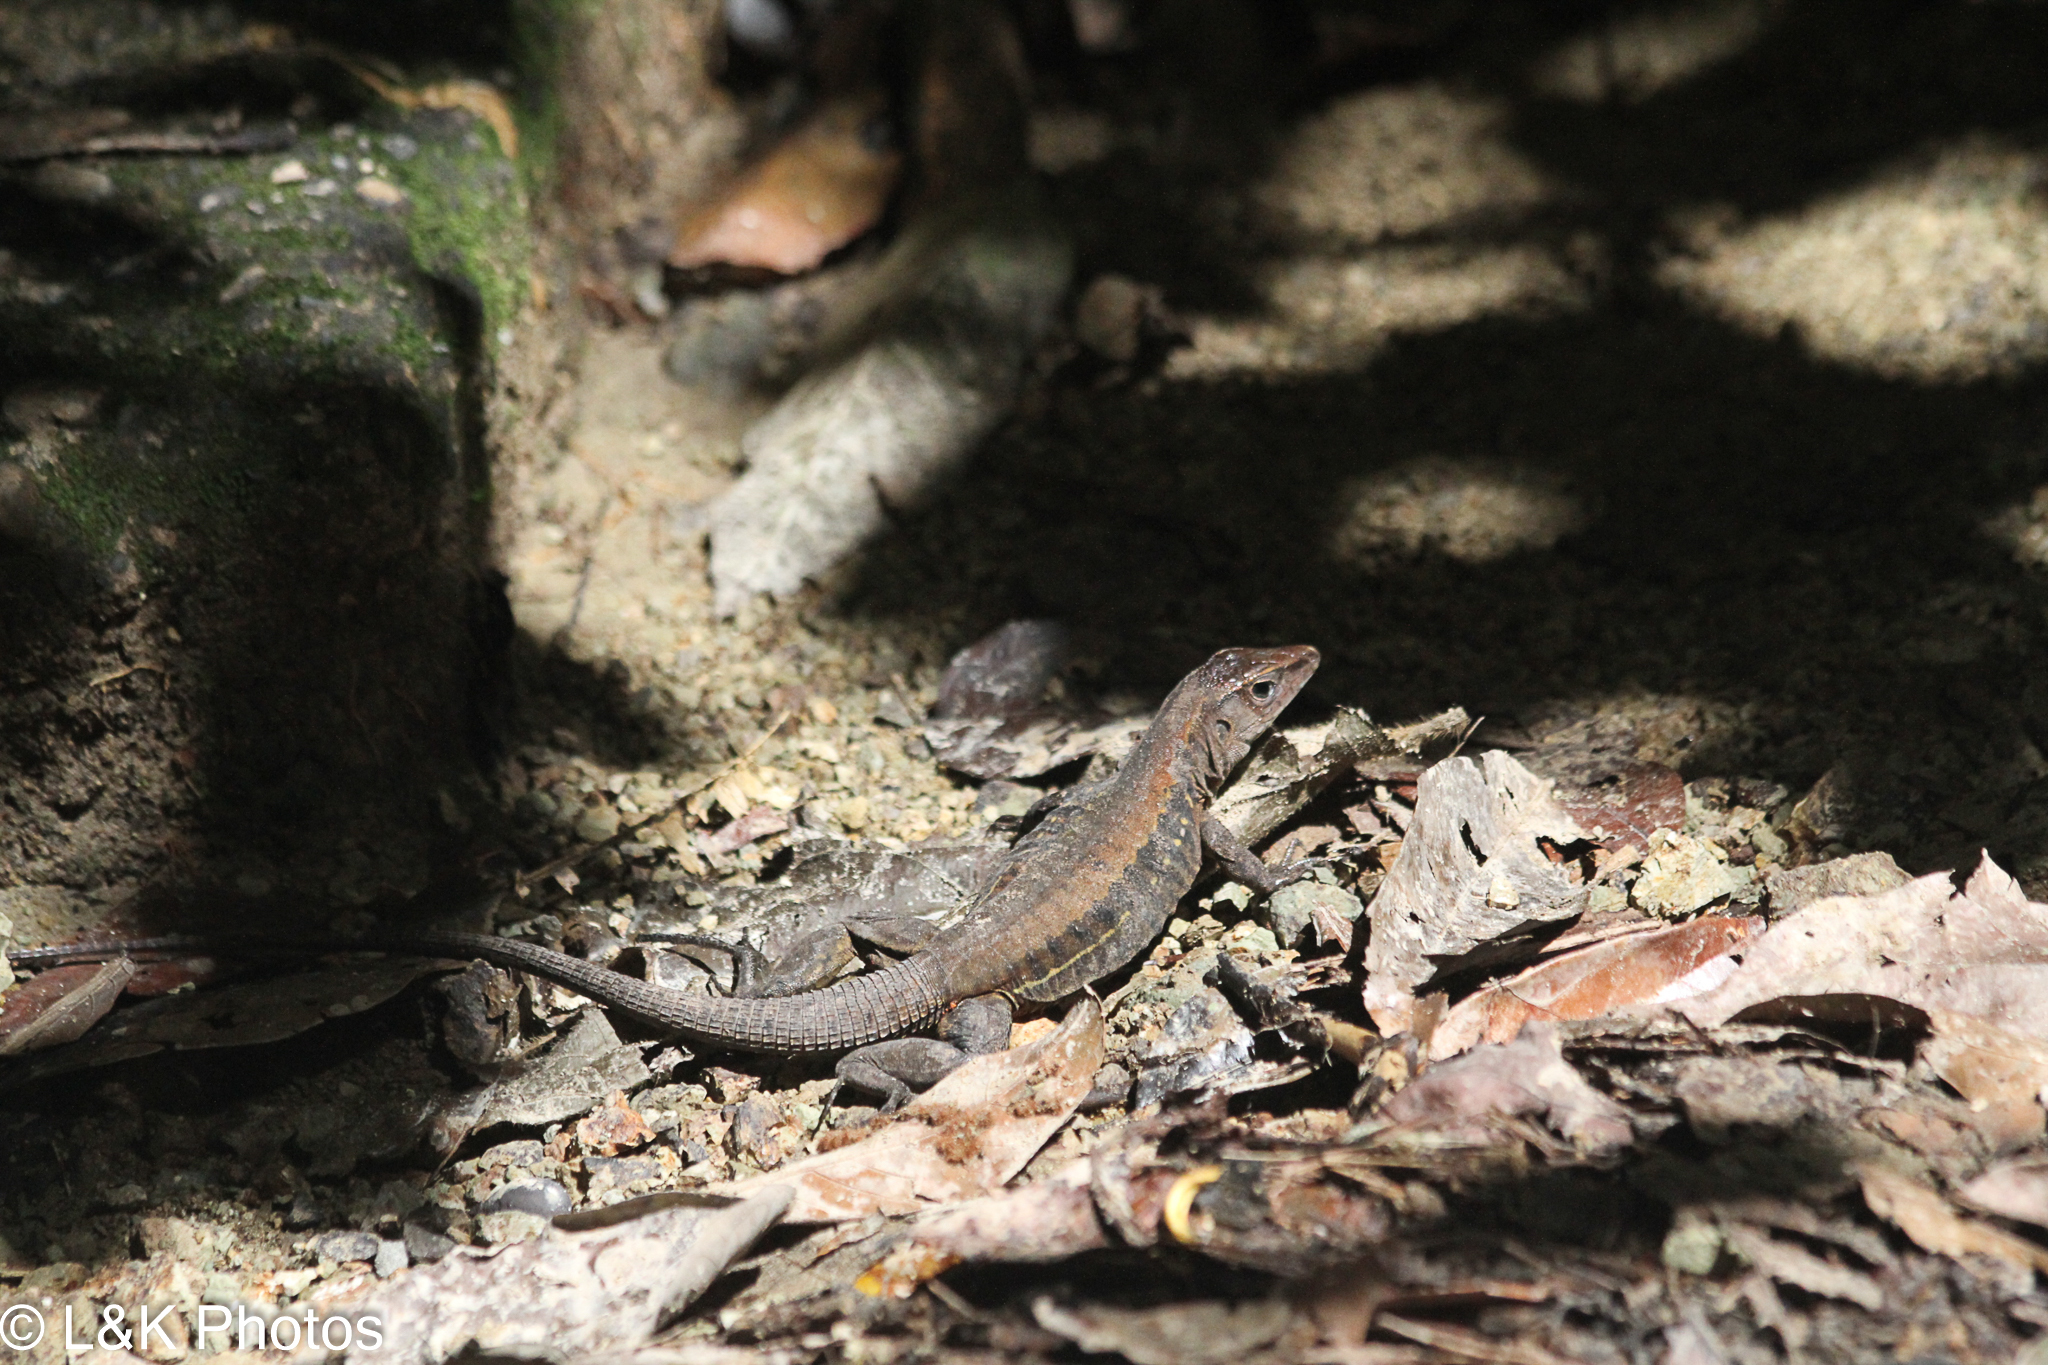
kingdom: Animalia
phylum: Chordata
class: Squamata
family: Teiidae
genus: Holcosus
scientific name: Holcosus leptophrys
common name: Delicate ameiva
